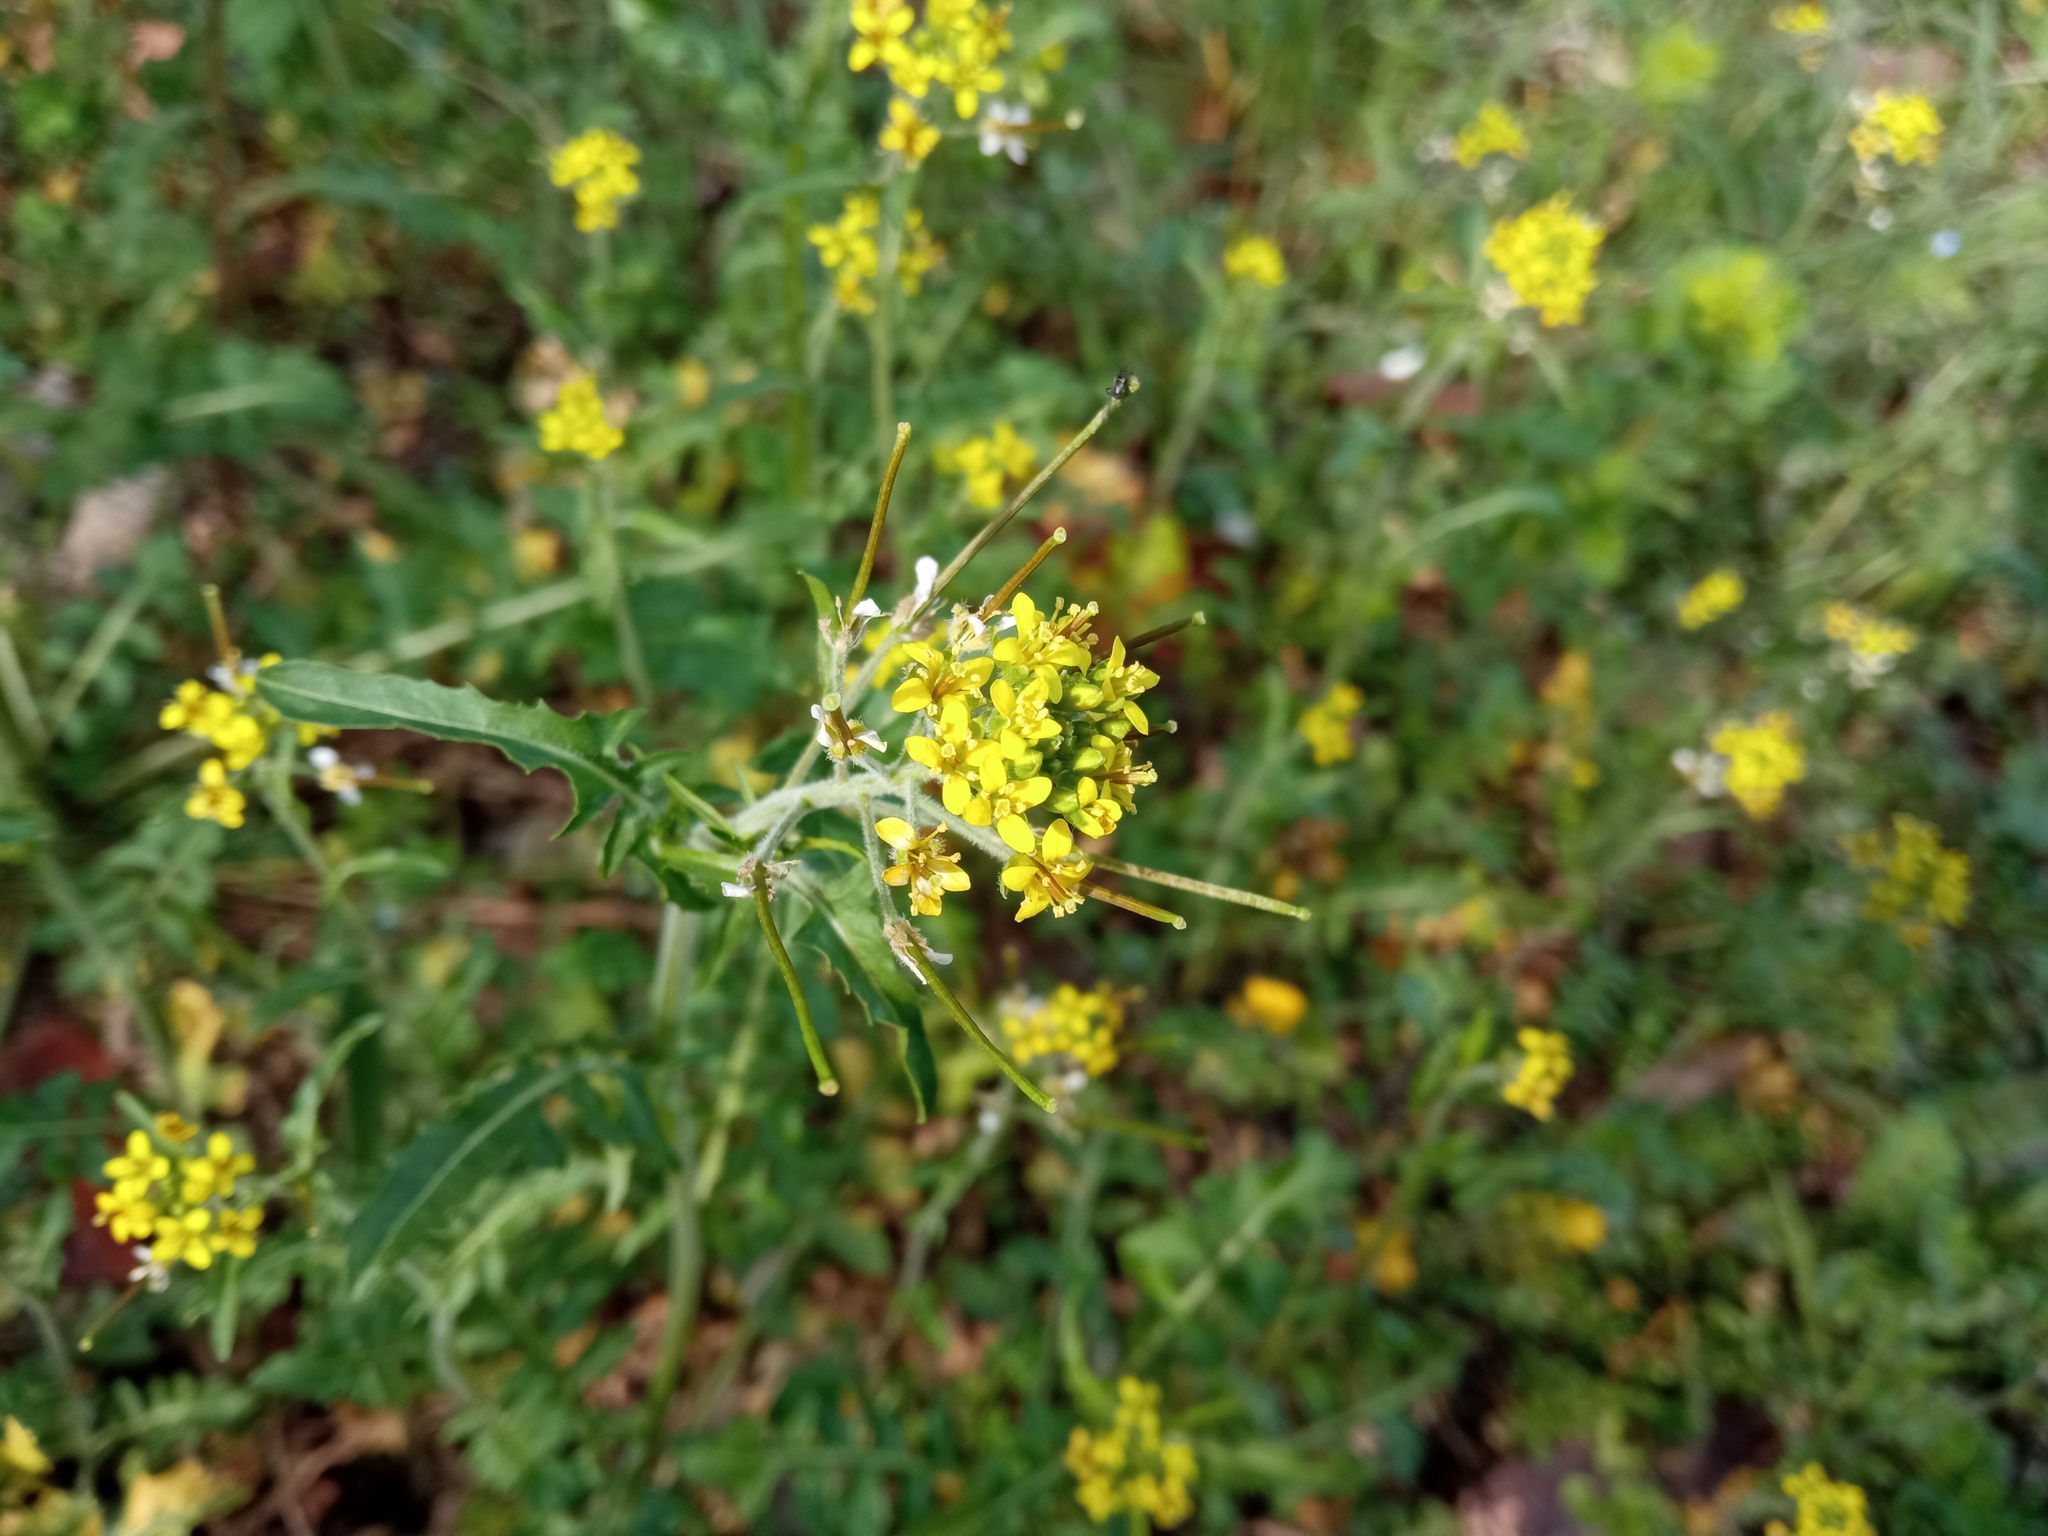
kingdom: Plantae
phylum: Tracheophyta
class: Magnoliopsida
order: Brassicales
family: Brassicaceae
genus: Sisymbrium
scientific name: Sisymbrium irio
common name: London rocket
